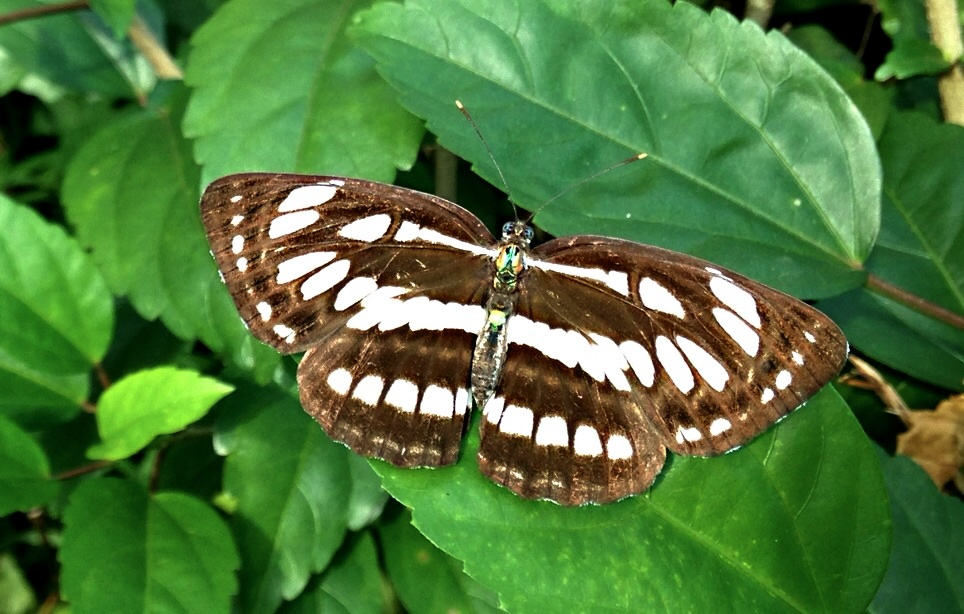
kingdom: Animalia
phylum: Arthropoda
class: Insecta
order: Lepidoptera
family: Nymphalidae
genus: Neptis
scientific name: Neptis hylas
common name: Common sailer
